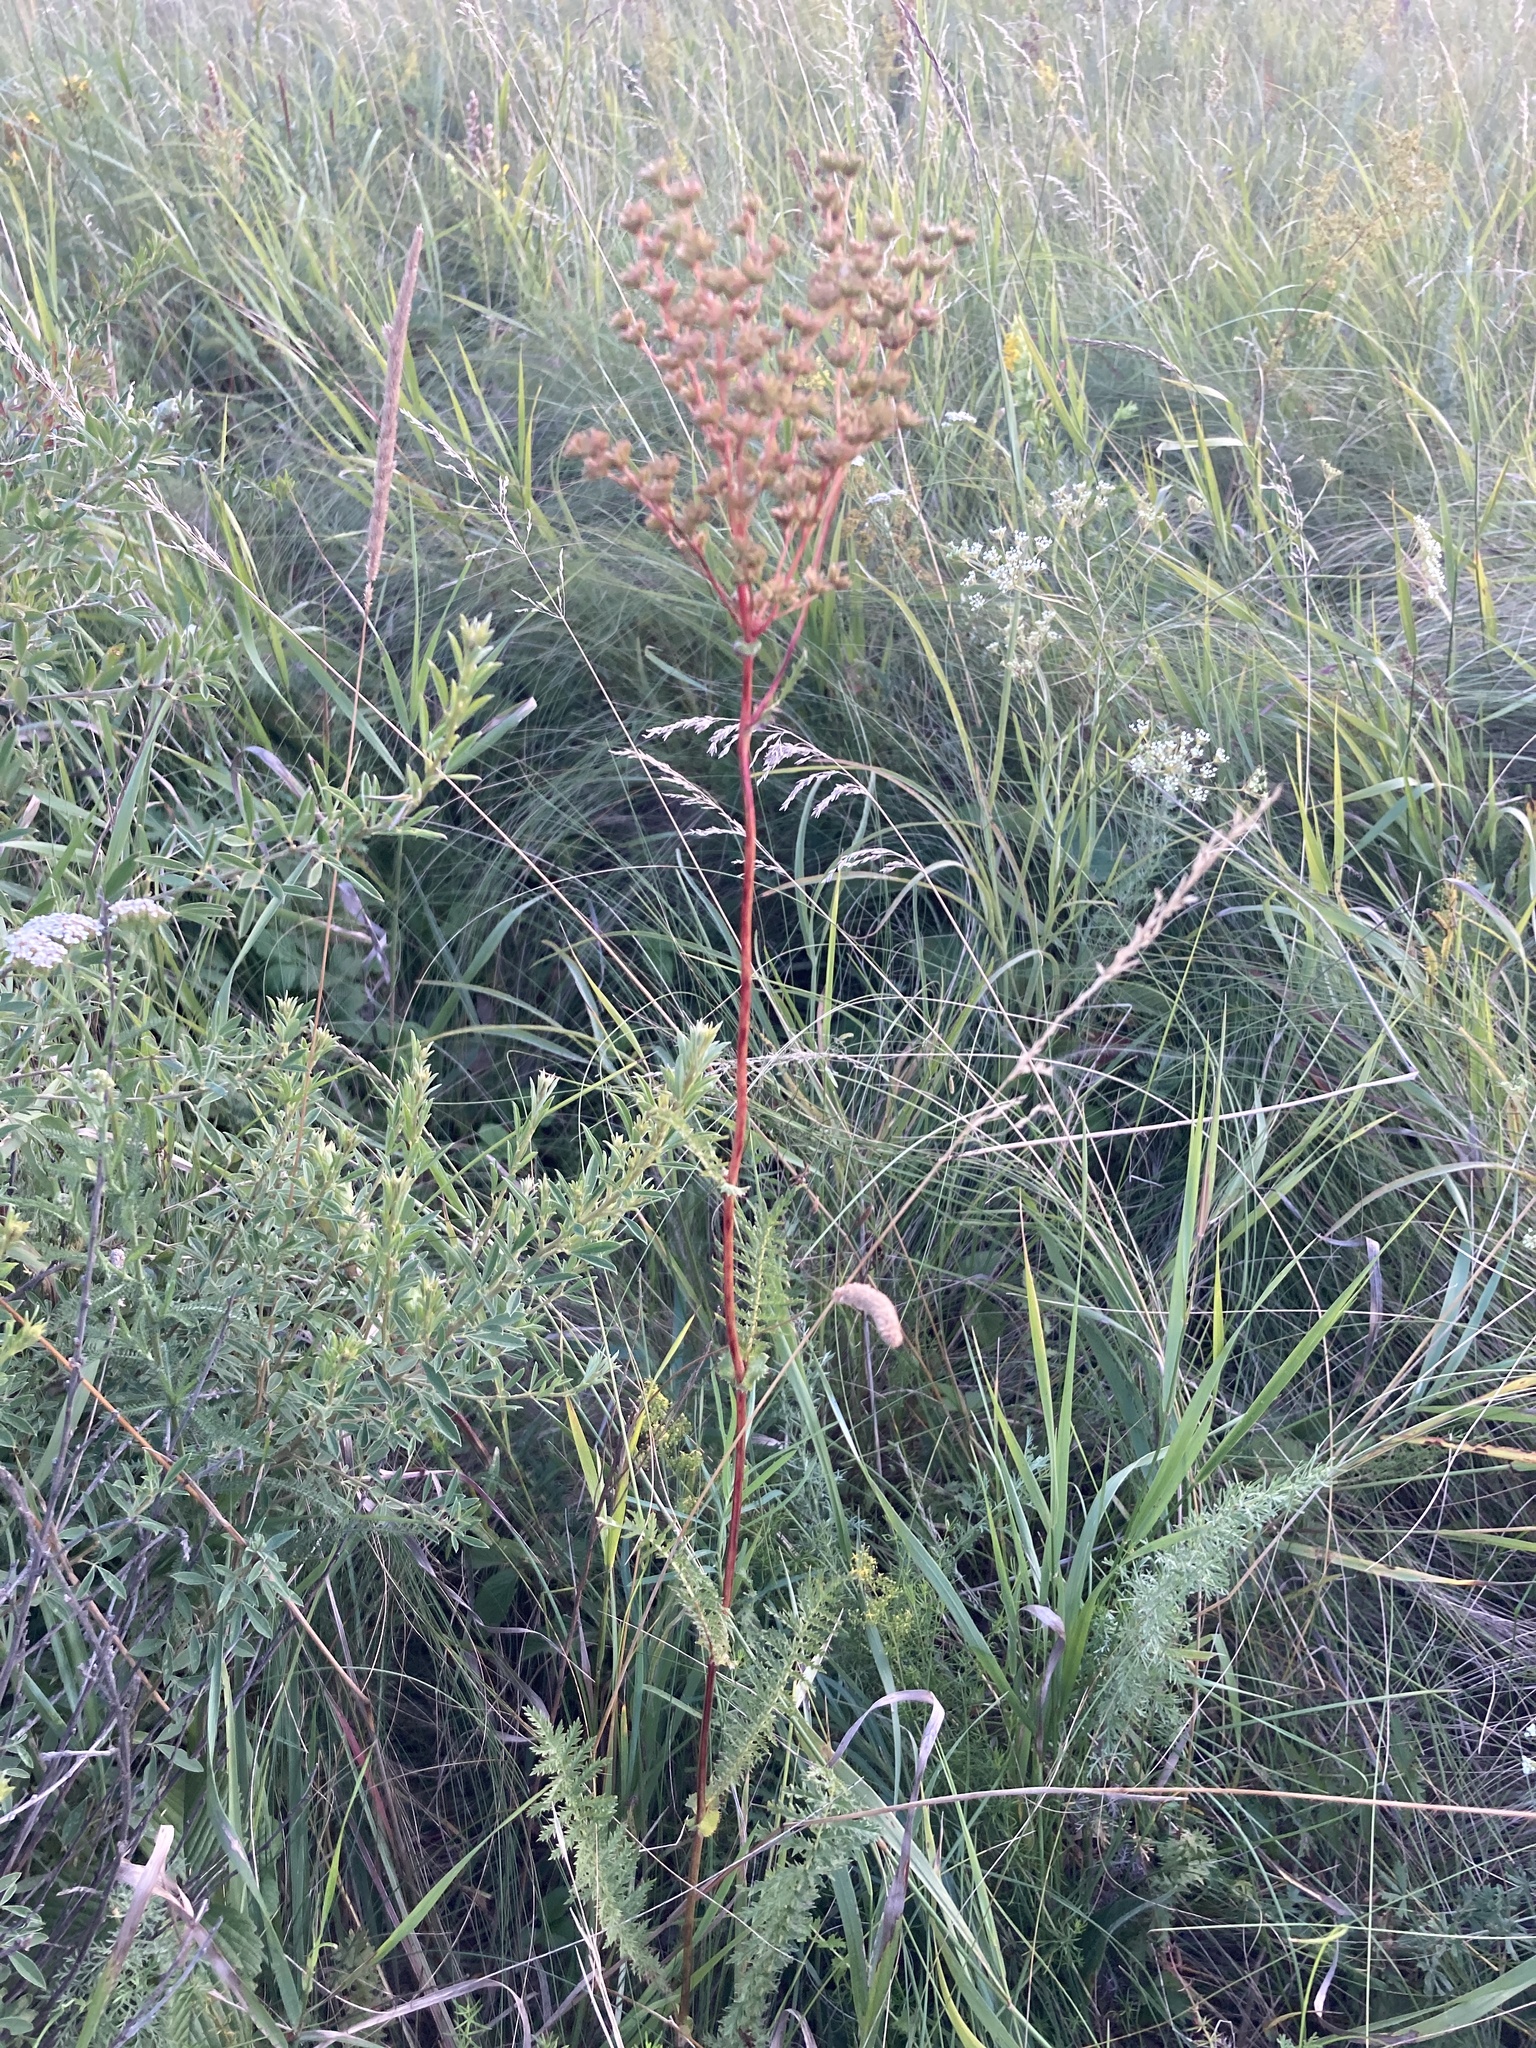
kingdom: Plantae
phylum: Tracheophyta
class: Magnoliopsida
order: Rosales
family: Rosaceae
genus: Filipendula
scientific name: Filipendula vulgaris
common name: Dropwort
